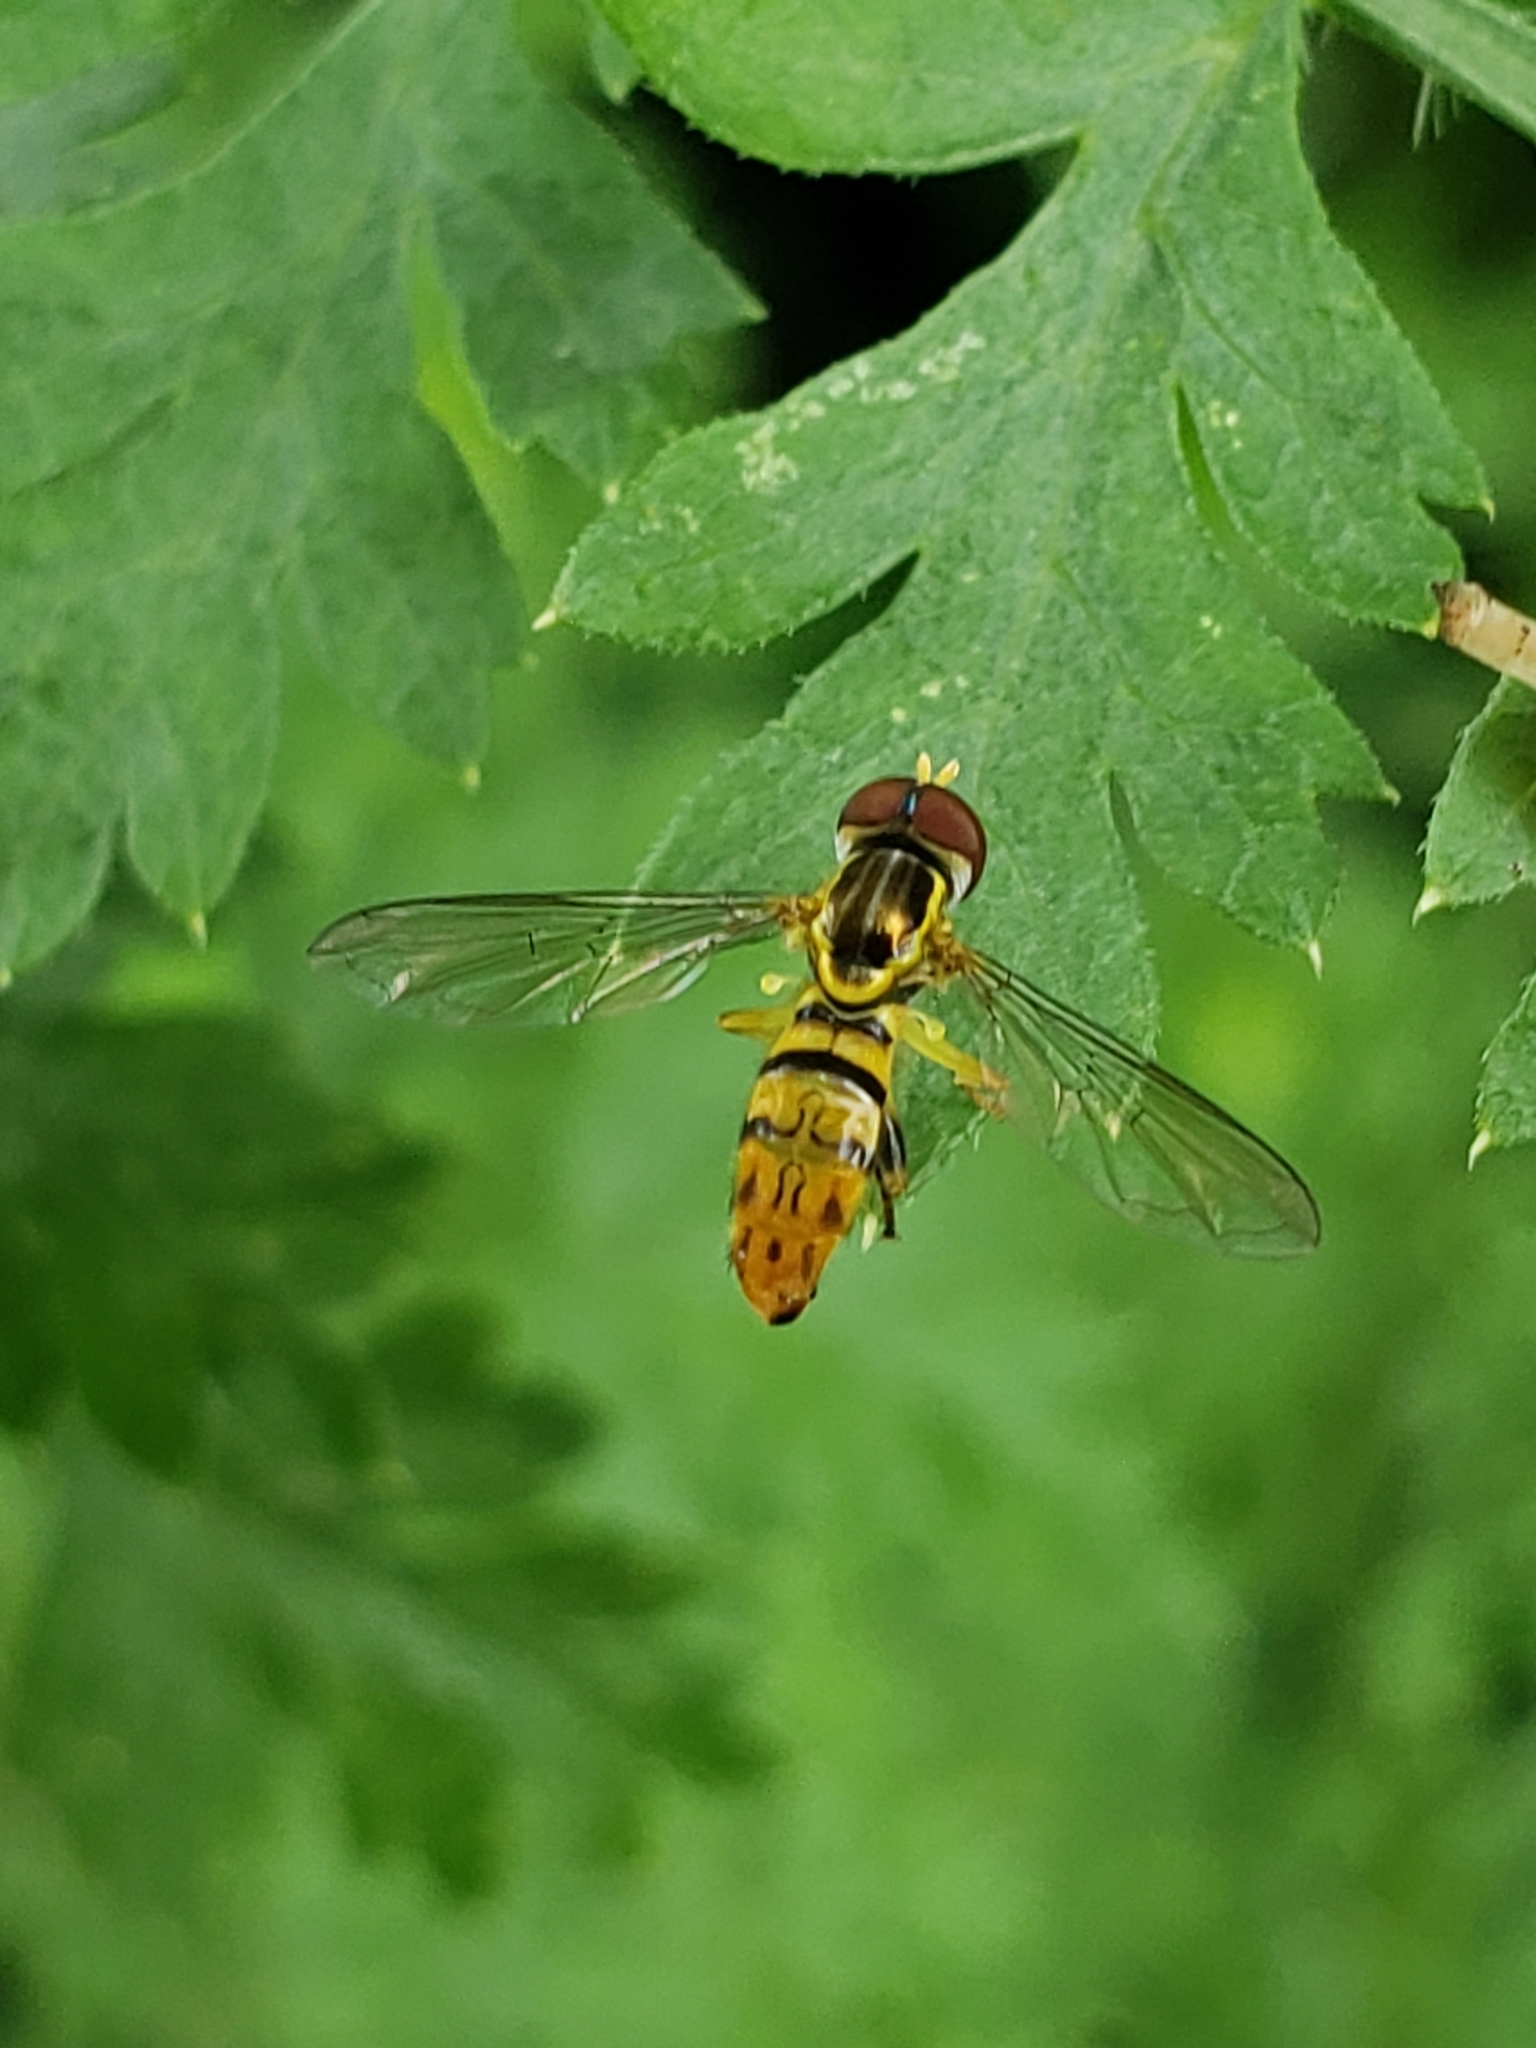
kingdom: Animalia
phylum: Arthropoda
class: Insecta
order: Diptera
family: Syrphidae
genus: Toxomerus
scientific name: Toxomerus geminatus
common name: Eastern calligrapher
